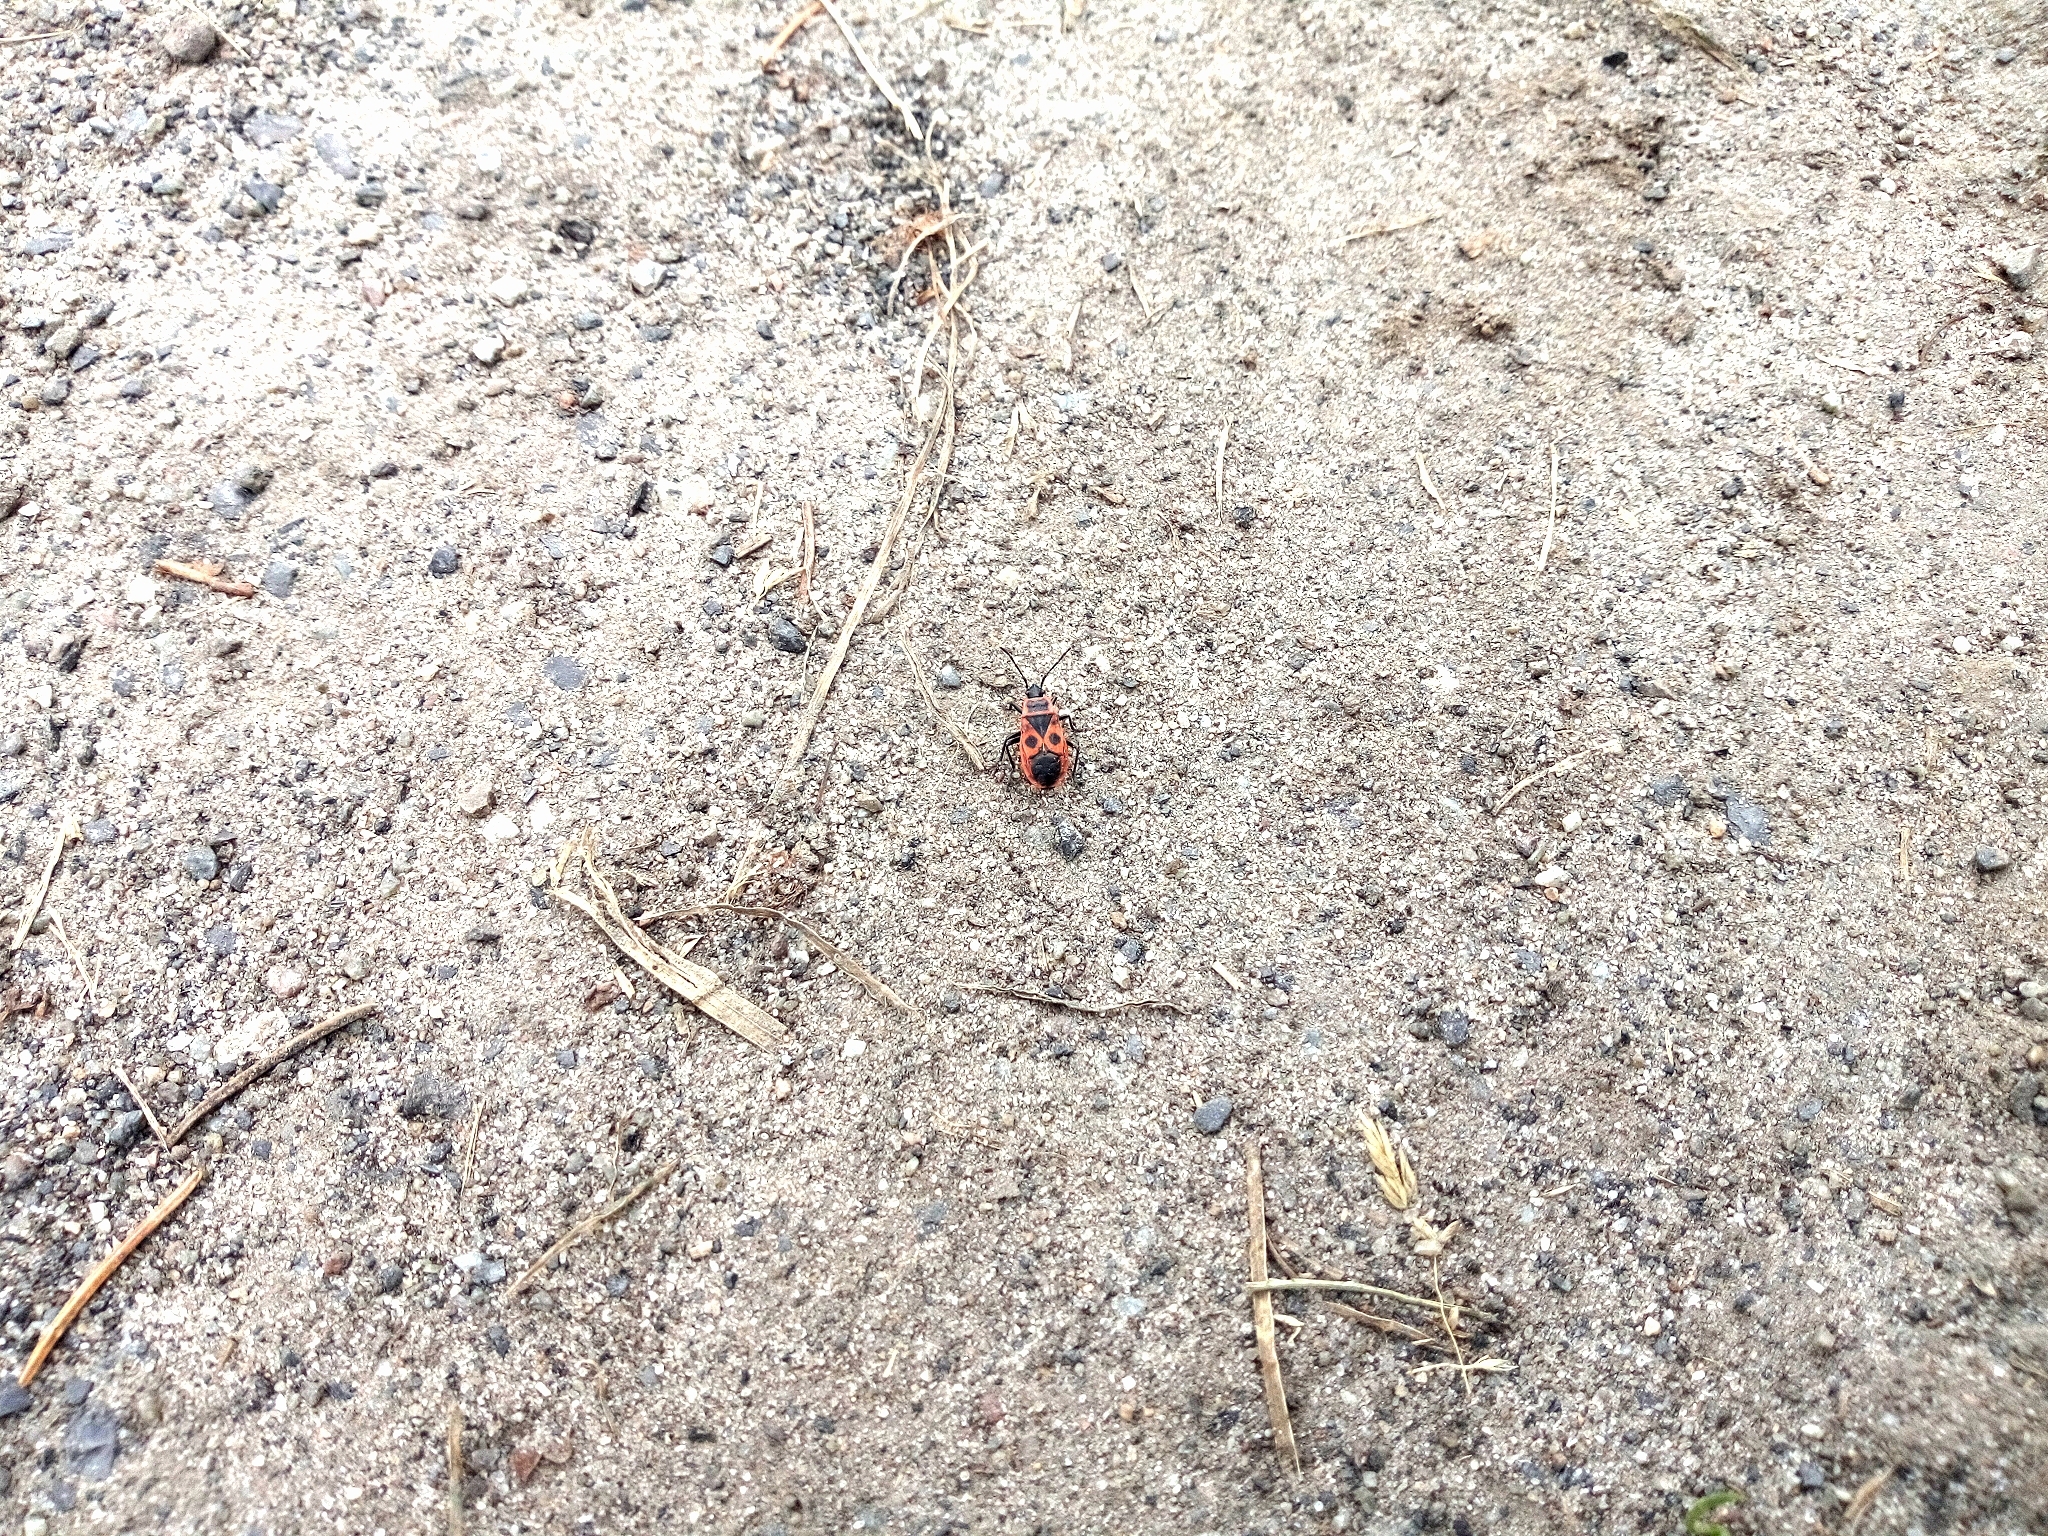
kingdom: Animalia
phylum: Arthropoda
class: Insecta
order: Hemiptera
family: Pyrrhocoridae
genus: Pyrrhocoris
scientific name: Pyrrhocoris apterus
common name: Firebug
